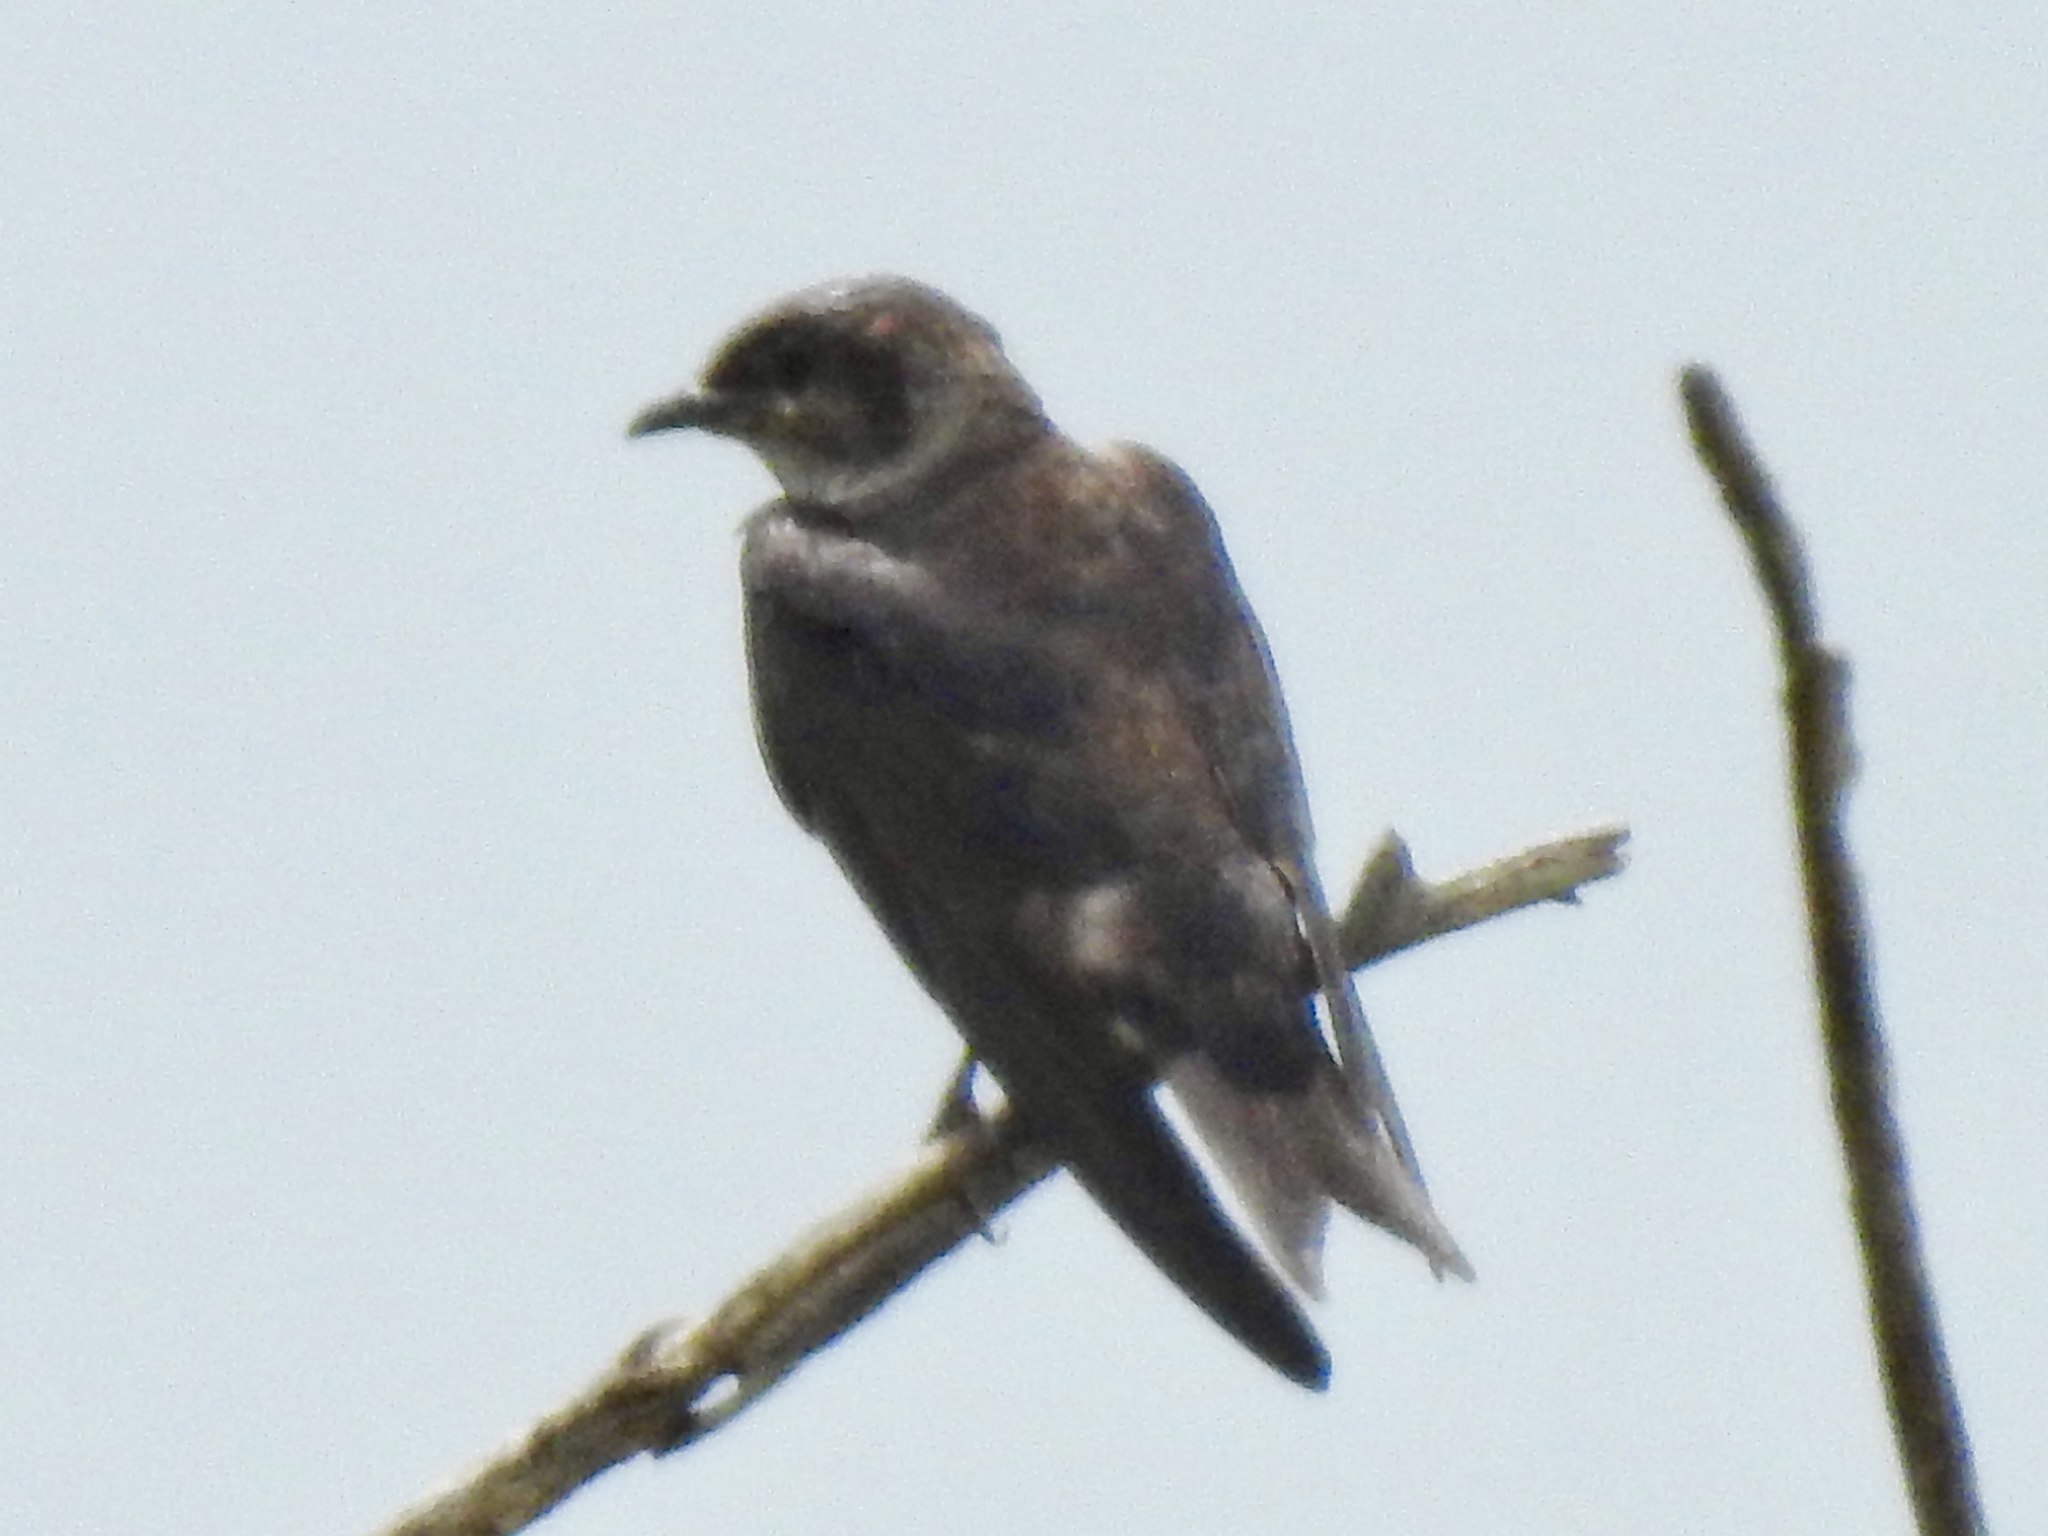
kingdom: Animalia
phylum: Chordata
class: Aves
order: Passeriformes
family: Hirundinidae
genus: Progne
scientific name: Progne subis
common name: Purple martin
